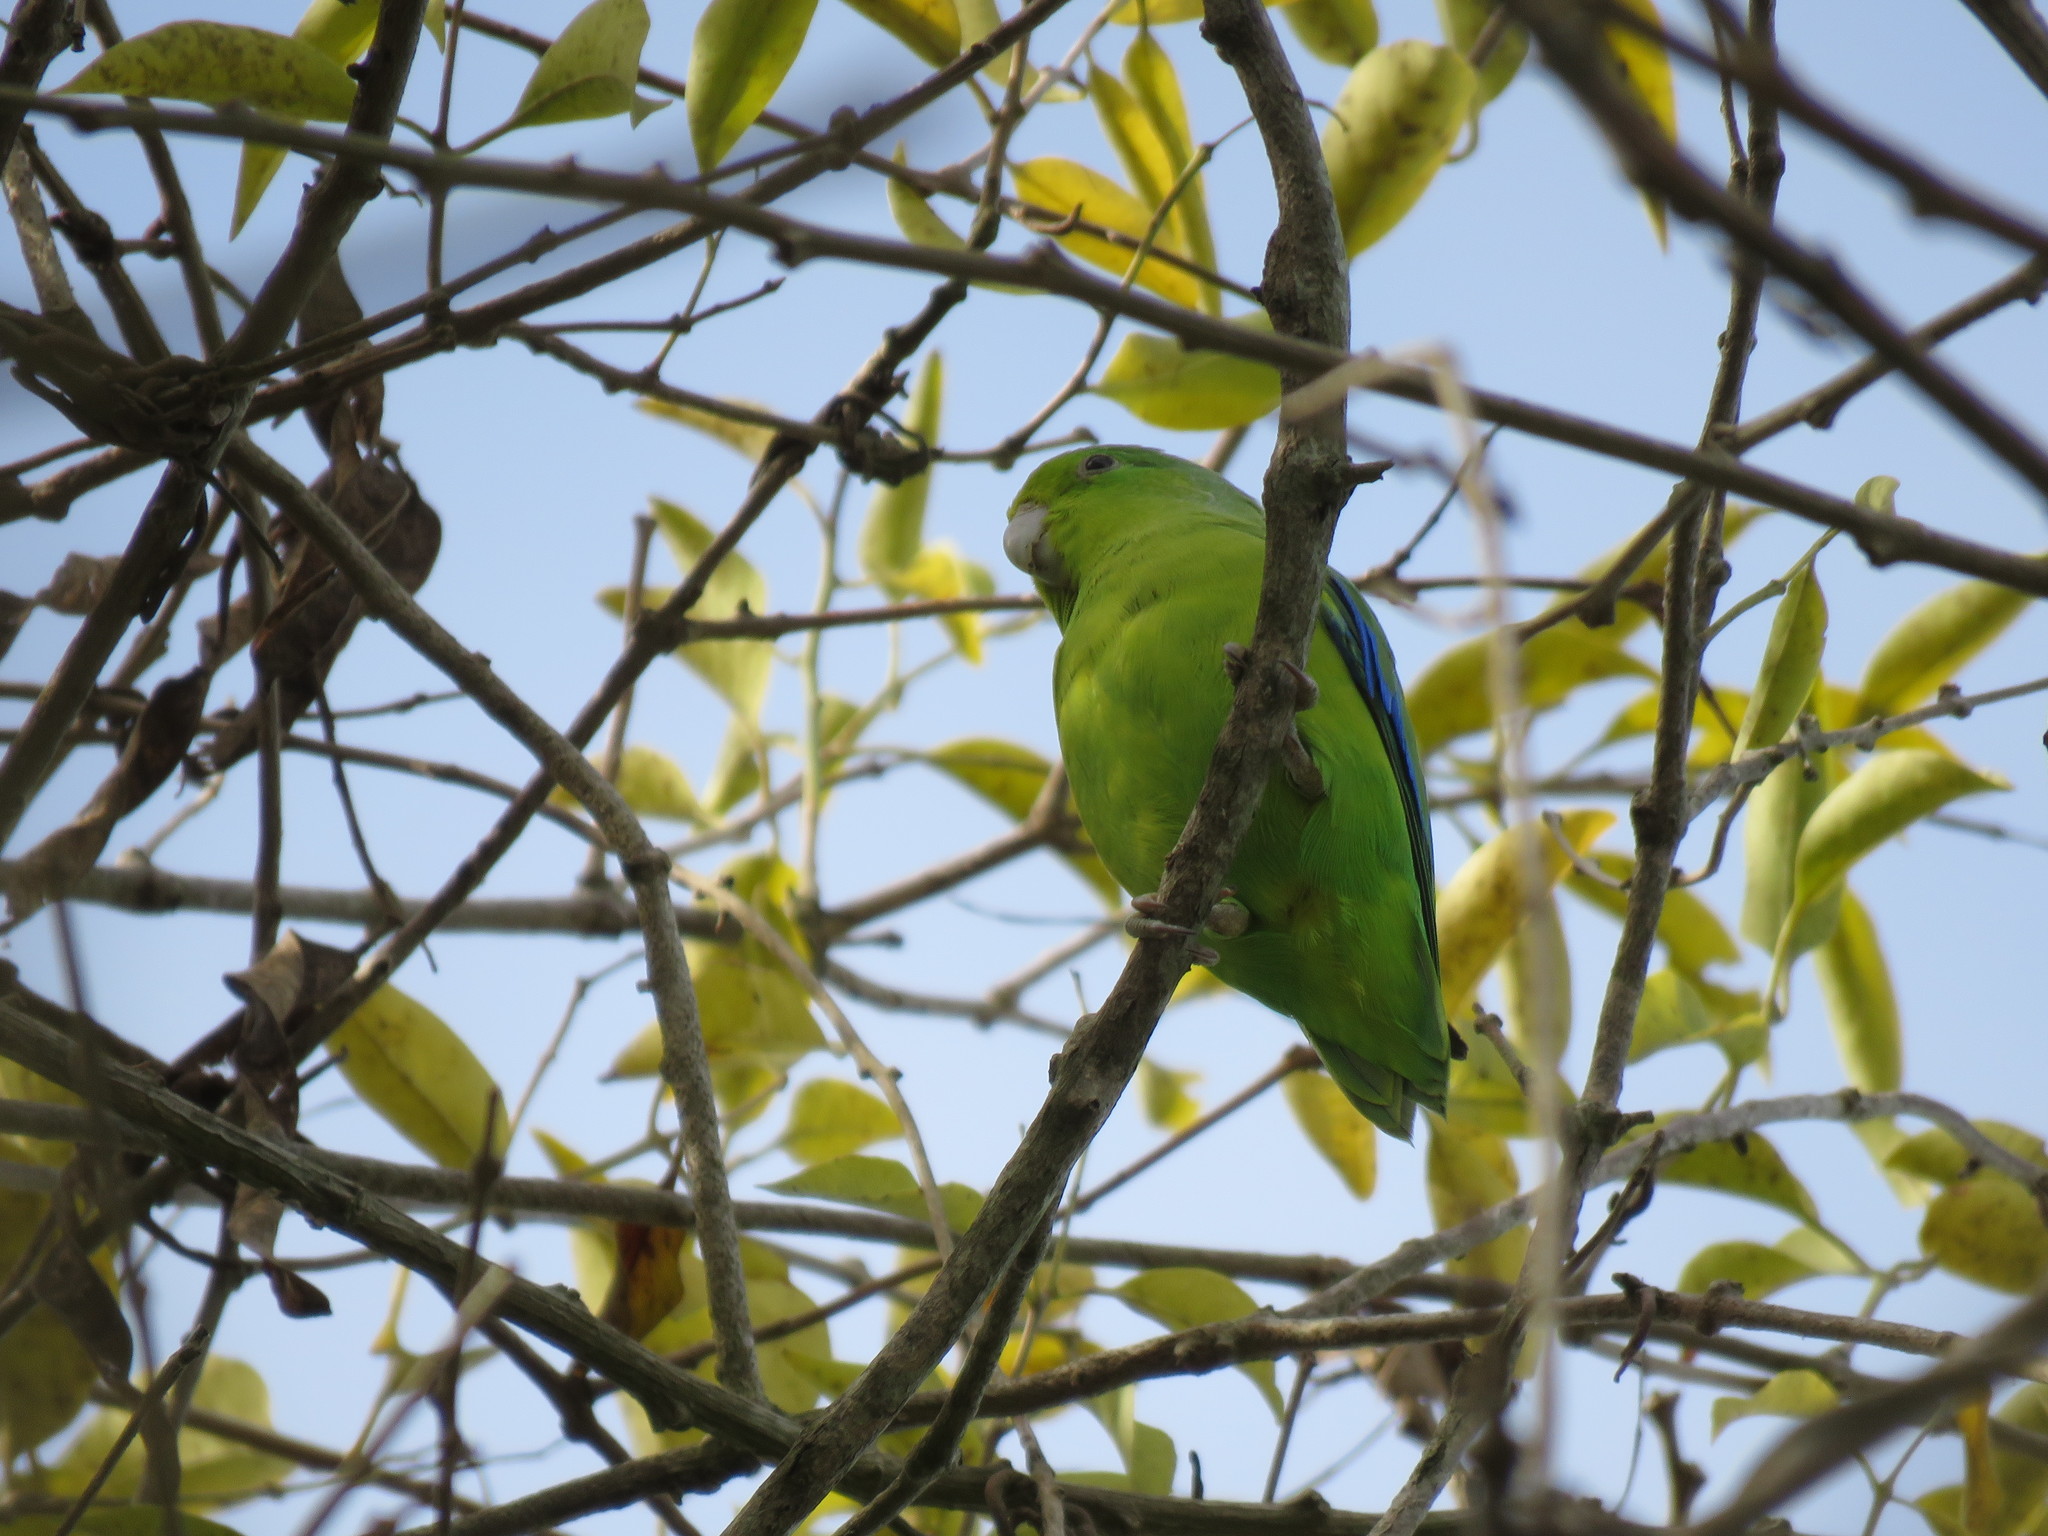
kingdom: Animalia
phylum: Chordata
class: Aves
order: Psittaciformes
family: Psittacidae
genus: Forpus
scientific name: Forpus xanthopterygius
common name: Blue-winged parrotlet
